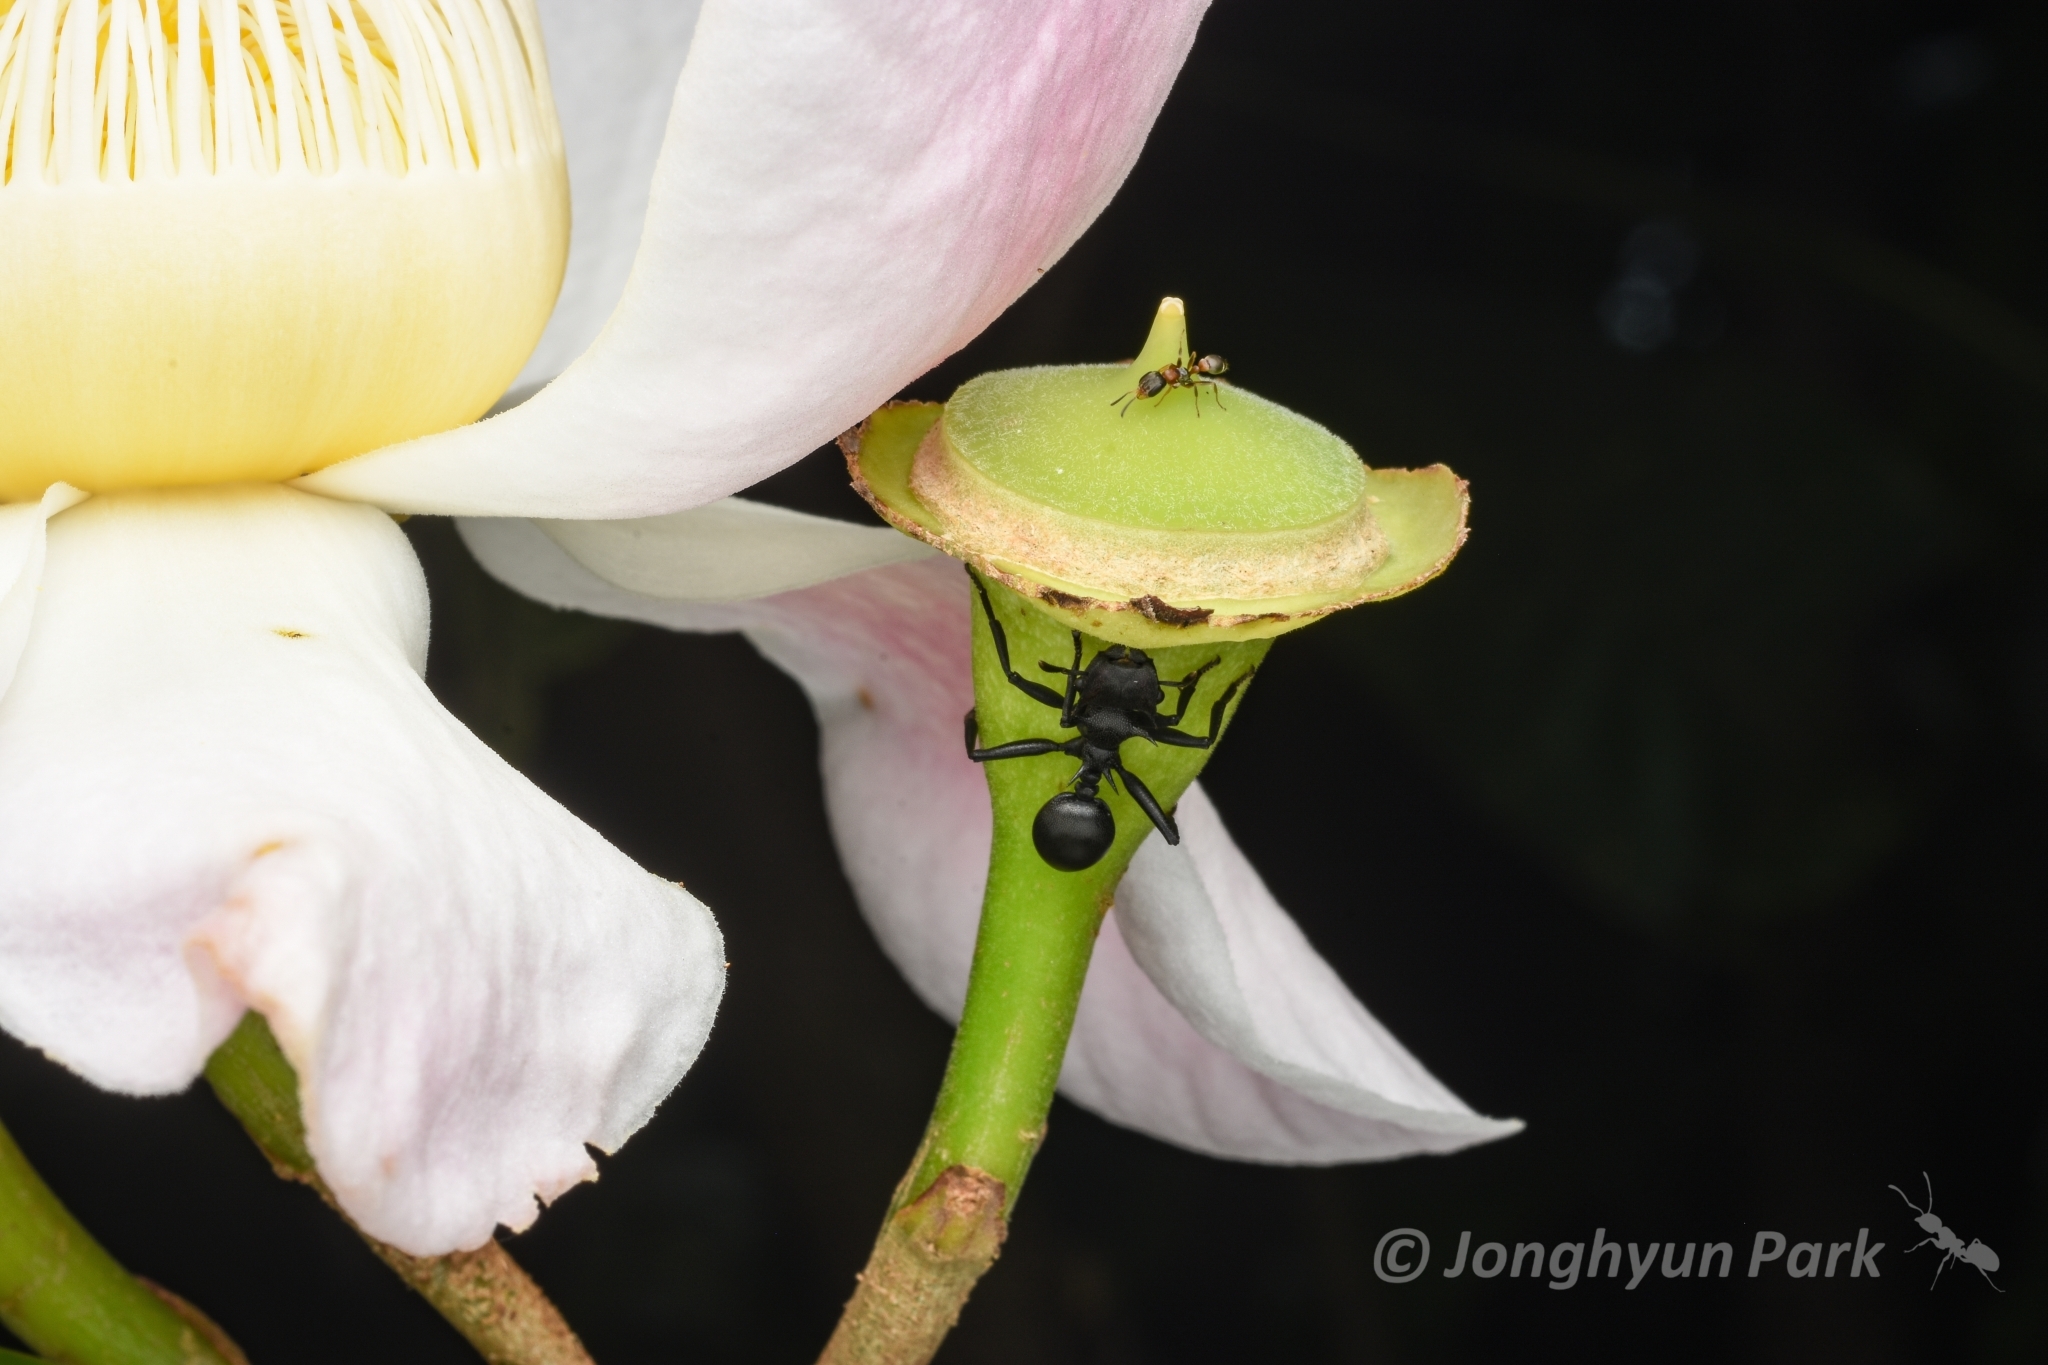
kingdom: Animalia
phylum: Arthropoda
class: Insecta
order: Hymenoptera
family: Formicidae
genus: Cephalotes
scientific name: Cephalotes atratus
